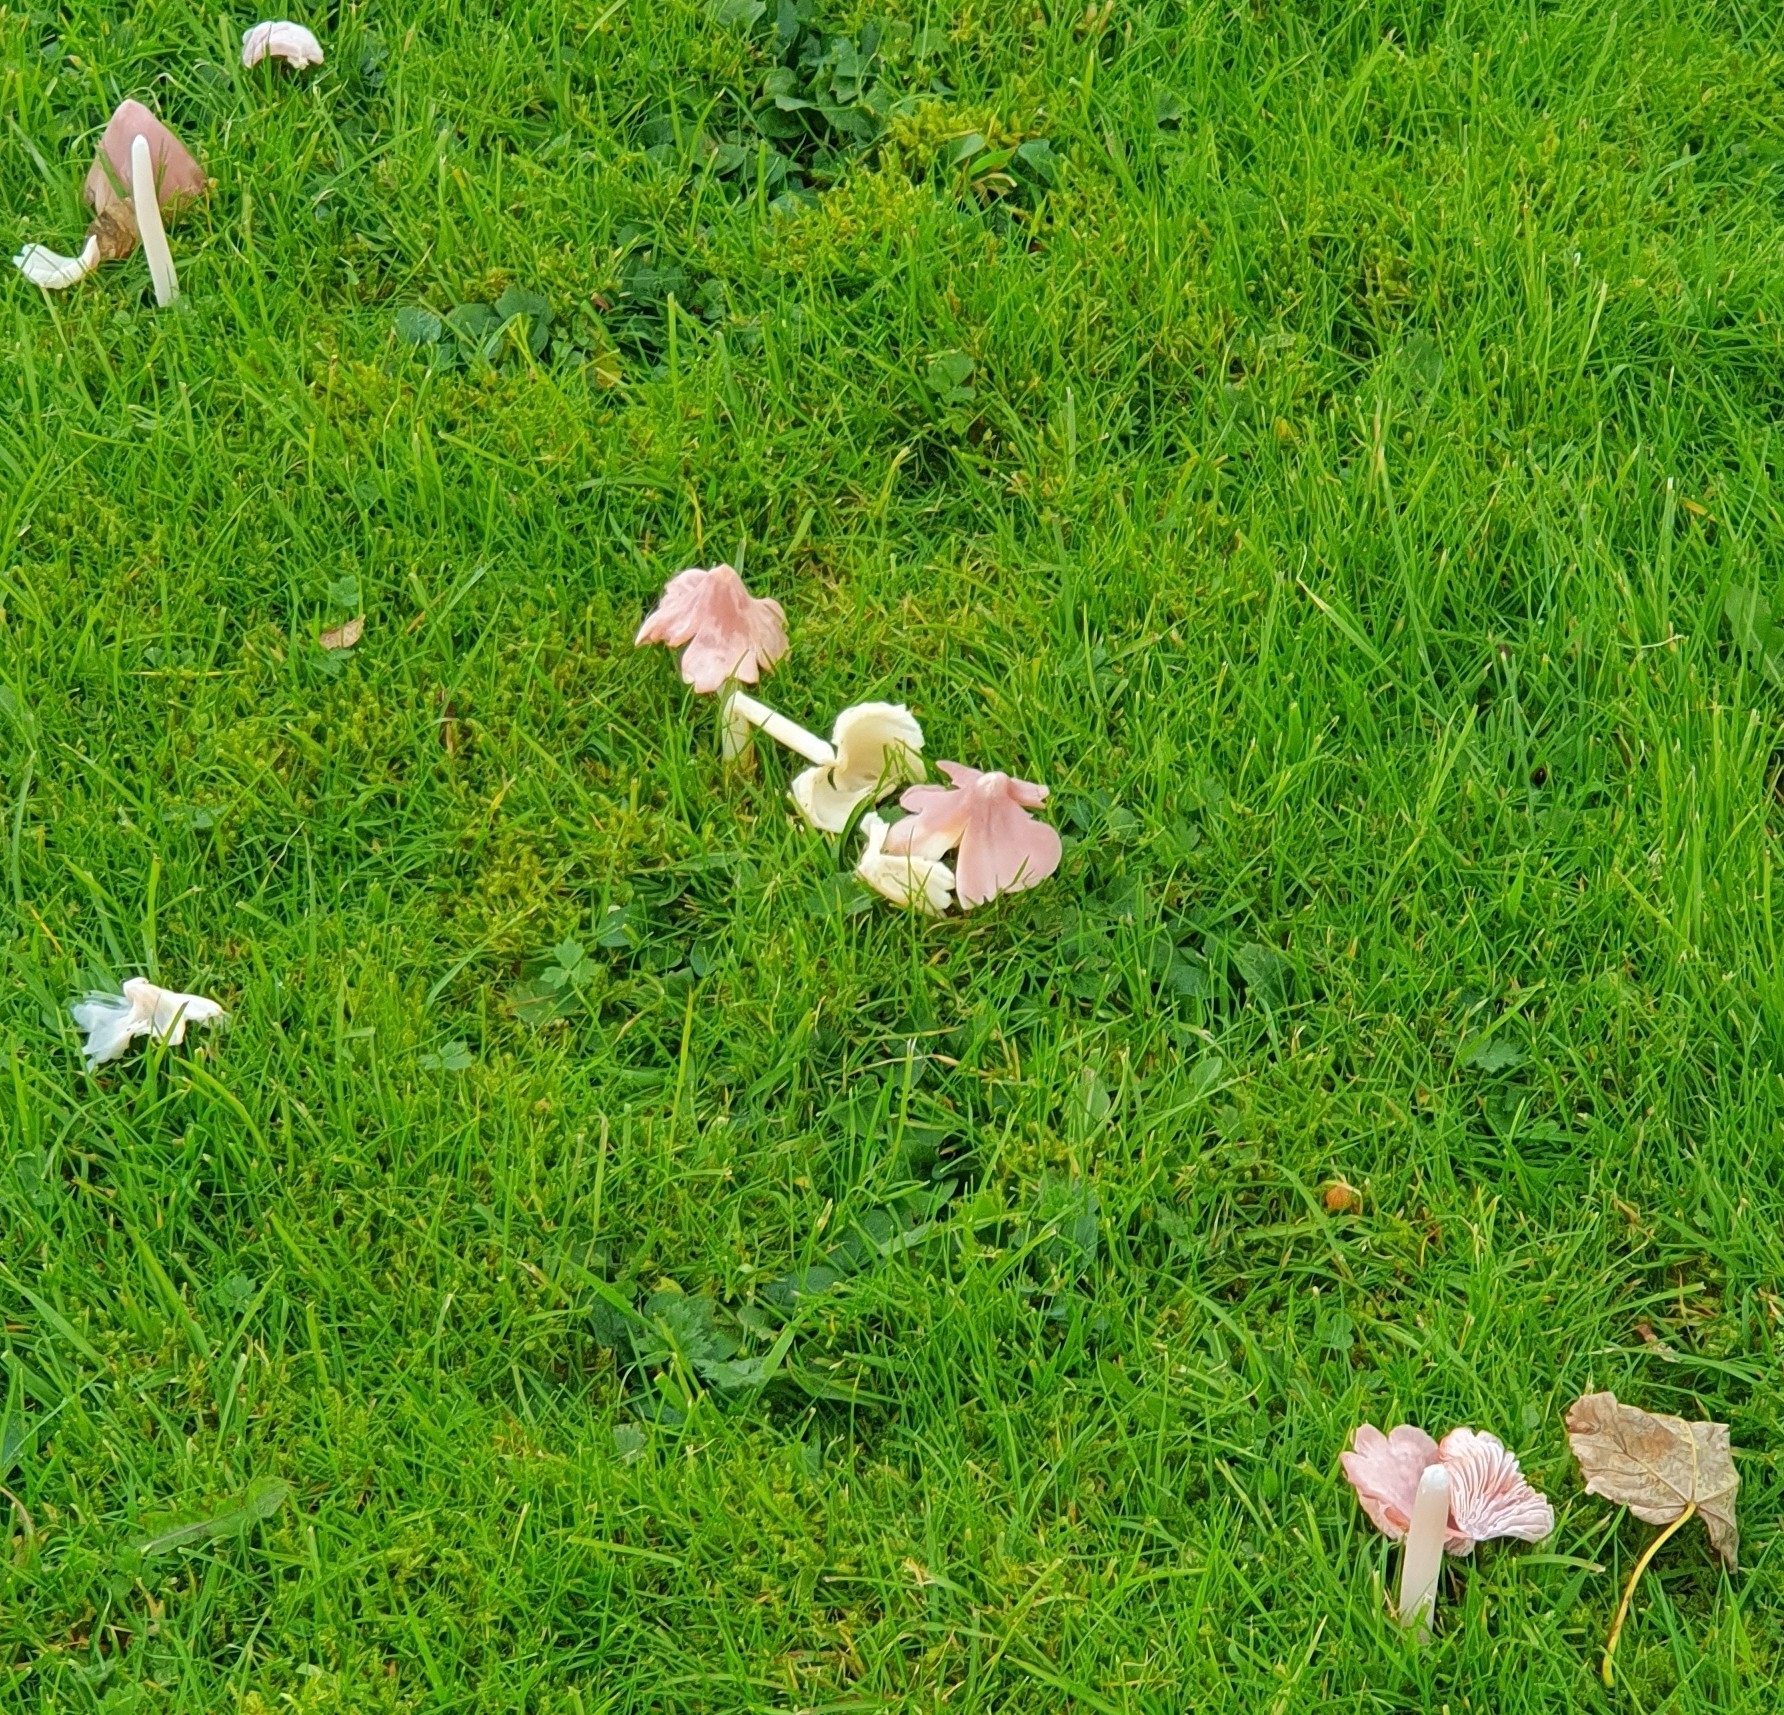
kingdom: Fungi
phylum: Basidiomycota
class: Agaricomycetes
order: Agaricales
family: Hygrophoraceae
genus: Porpolomopsis
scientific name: Porpolomopsis calyptriformis
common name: Pink waxcap
